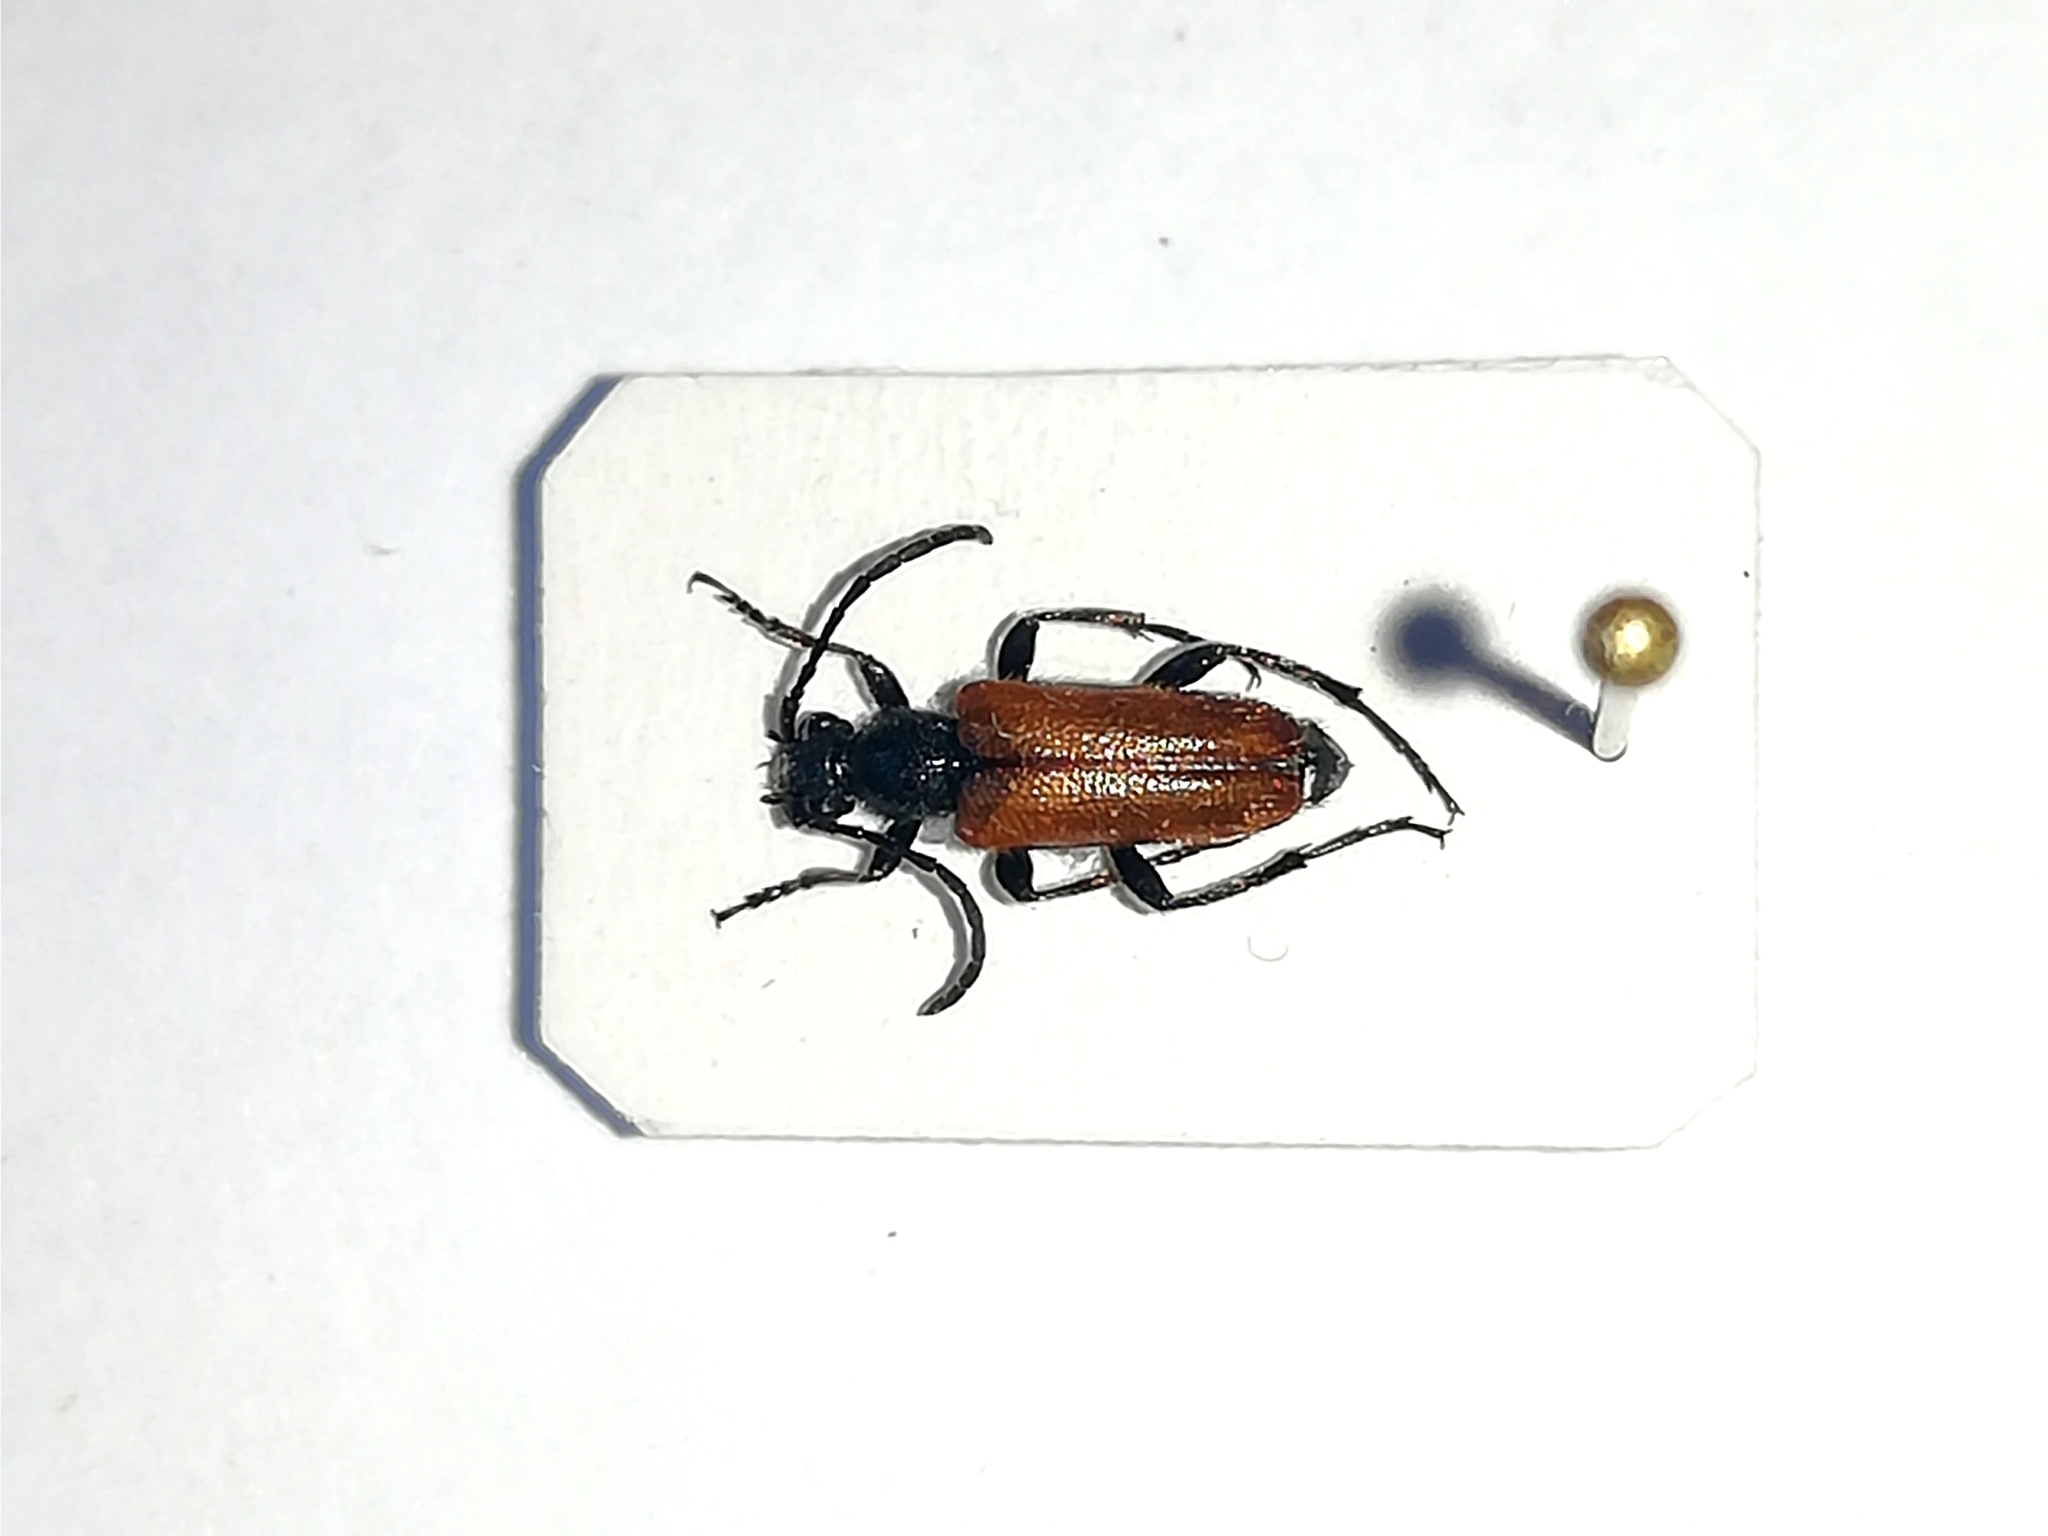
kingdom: Animalia
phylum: Arthropoda
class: Insecta
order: Coleoptera
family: Cerambycidae
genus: Pseudovadonia
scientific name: Pseudovadonia livida
